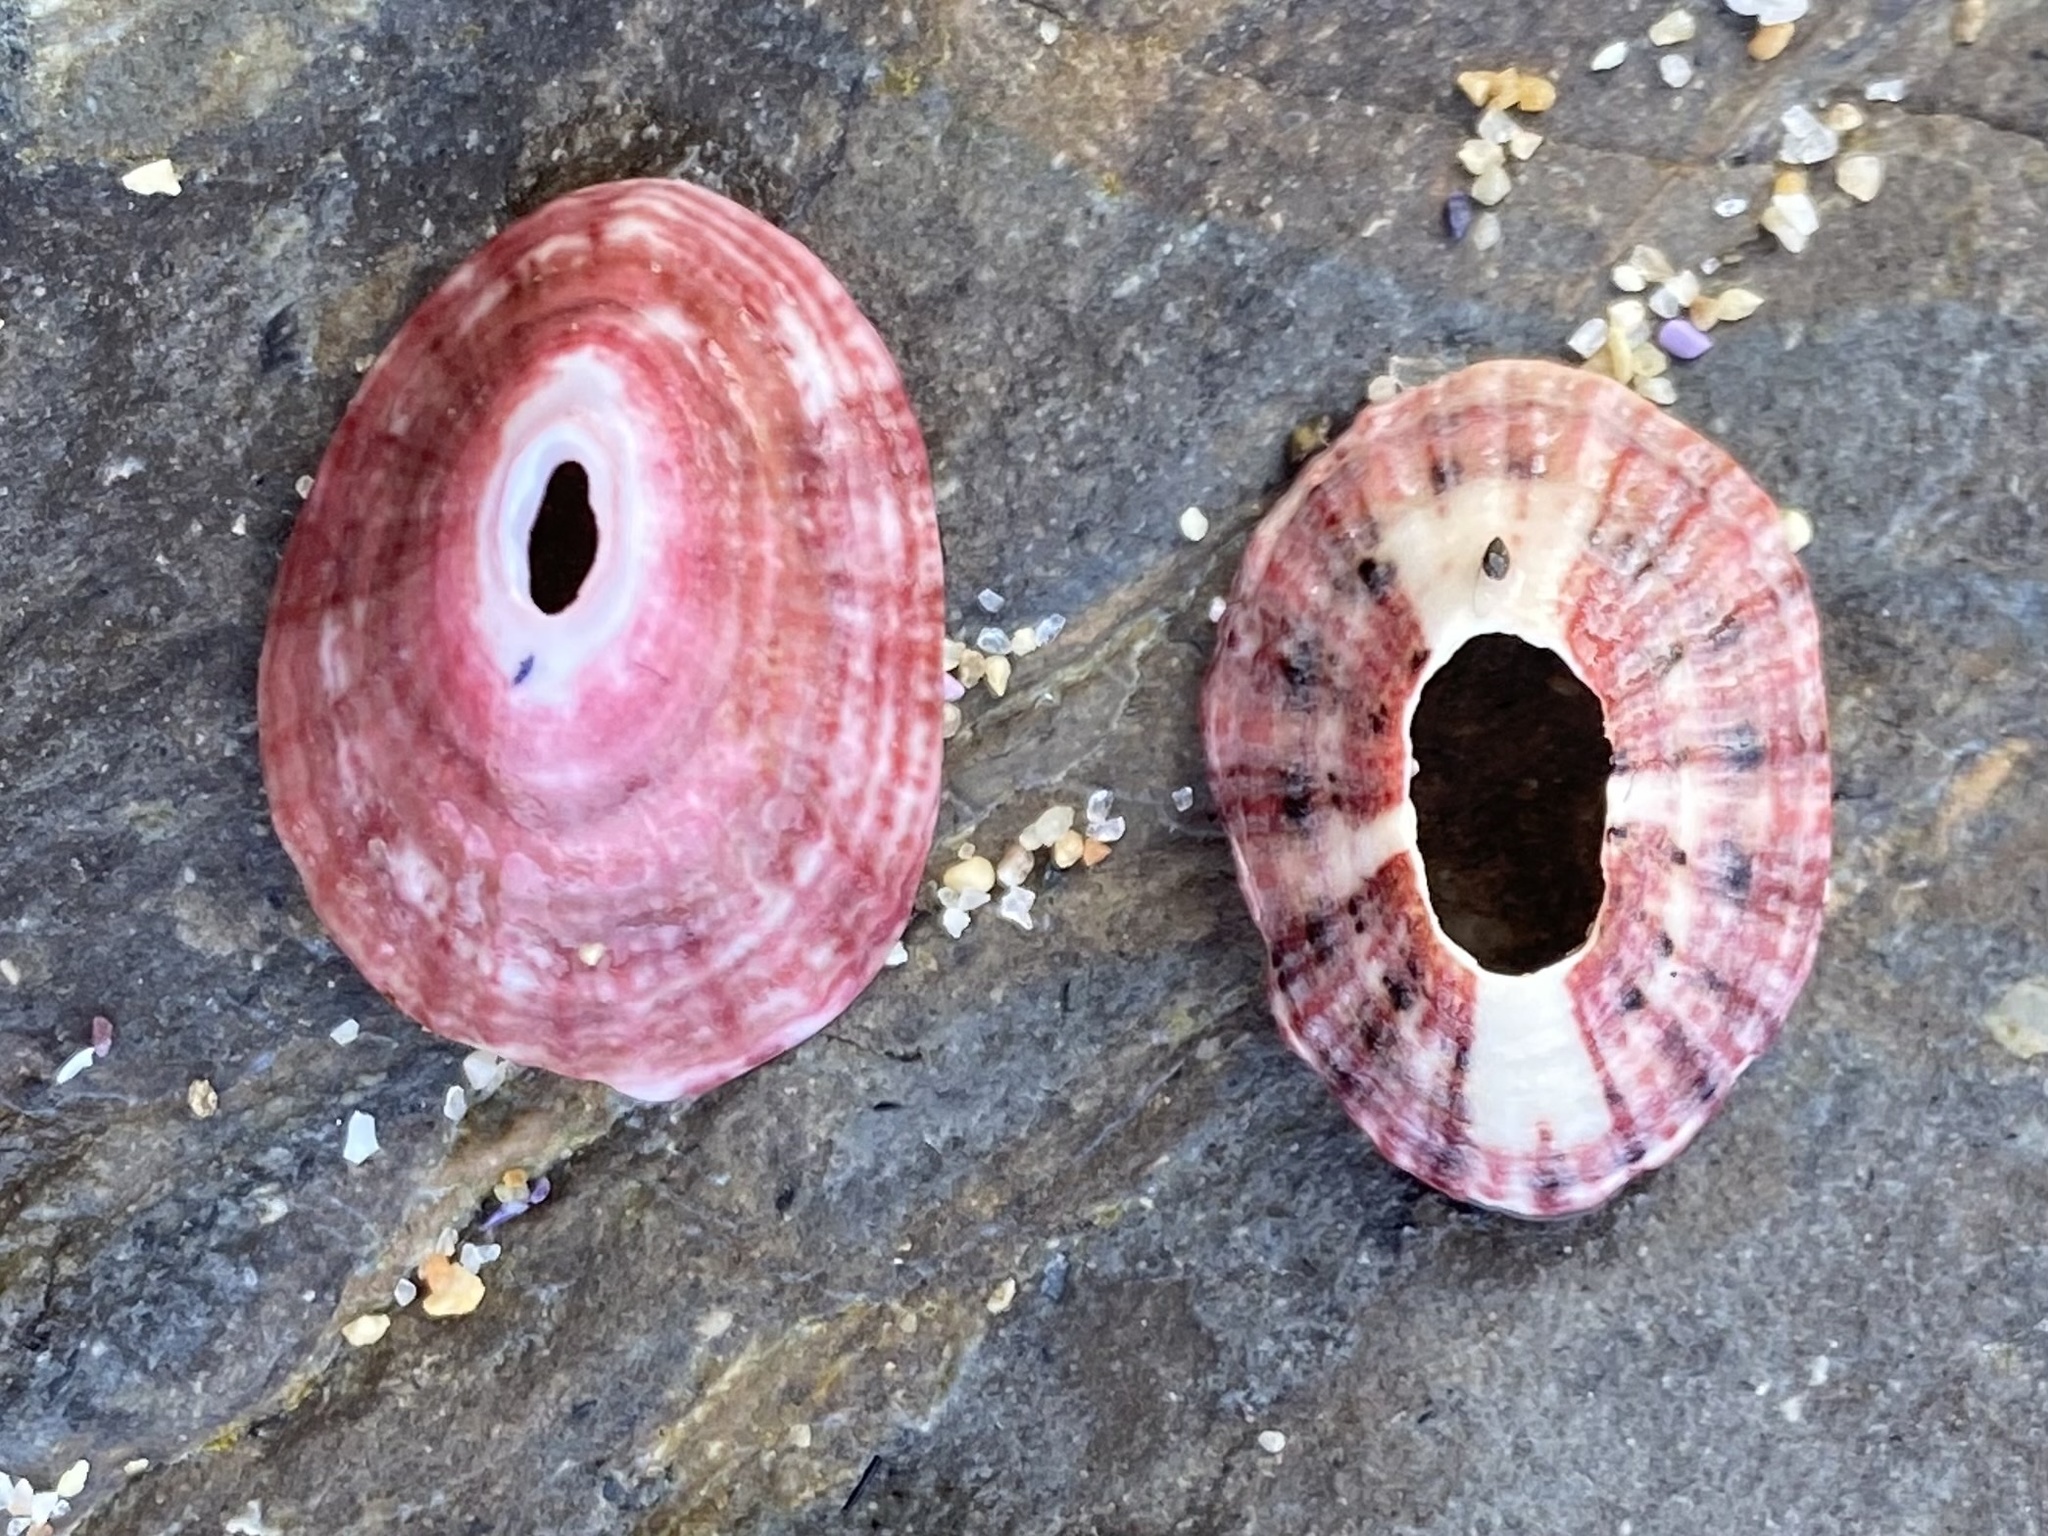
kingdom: Animalia
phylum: Mollusca
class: Gastropoda
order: Lepetellida
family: Fissurellidae
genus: Fissurella
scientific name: Fissurella volcano
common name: Volcano keyhole limpet
